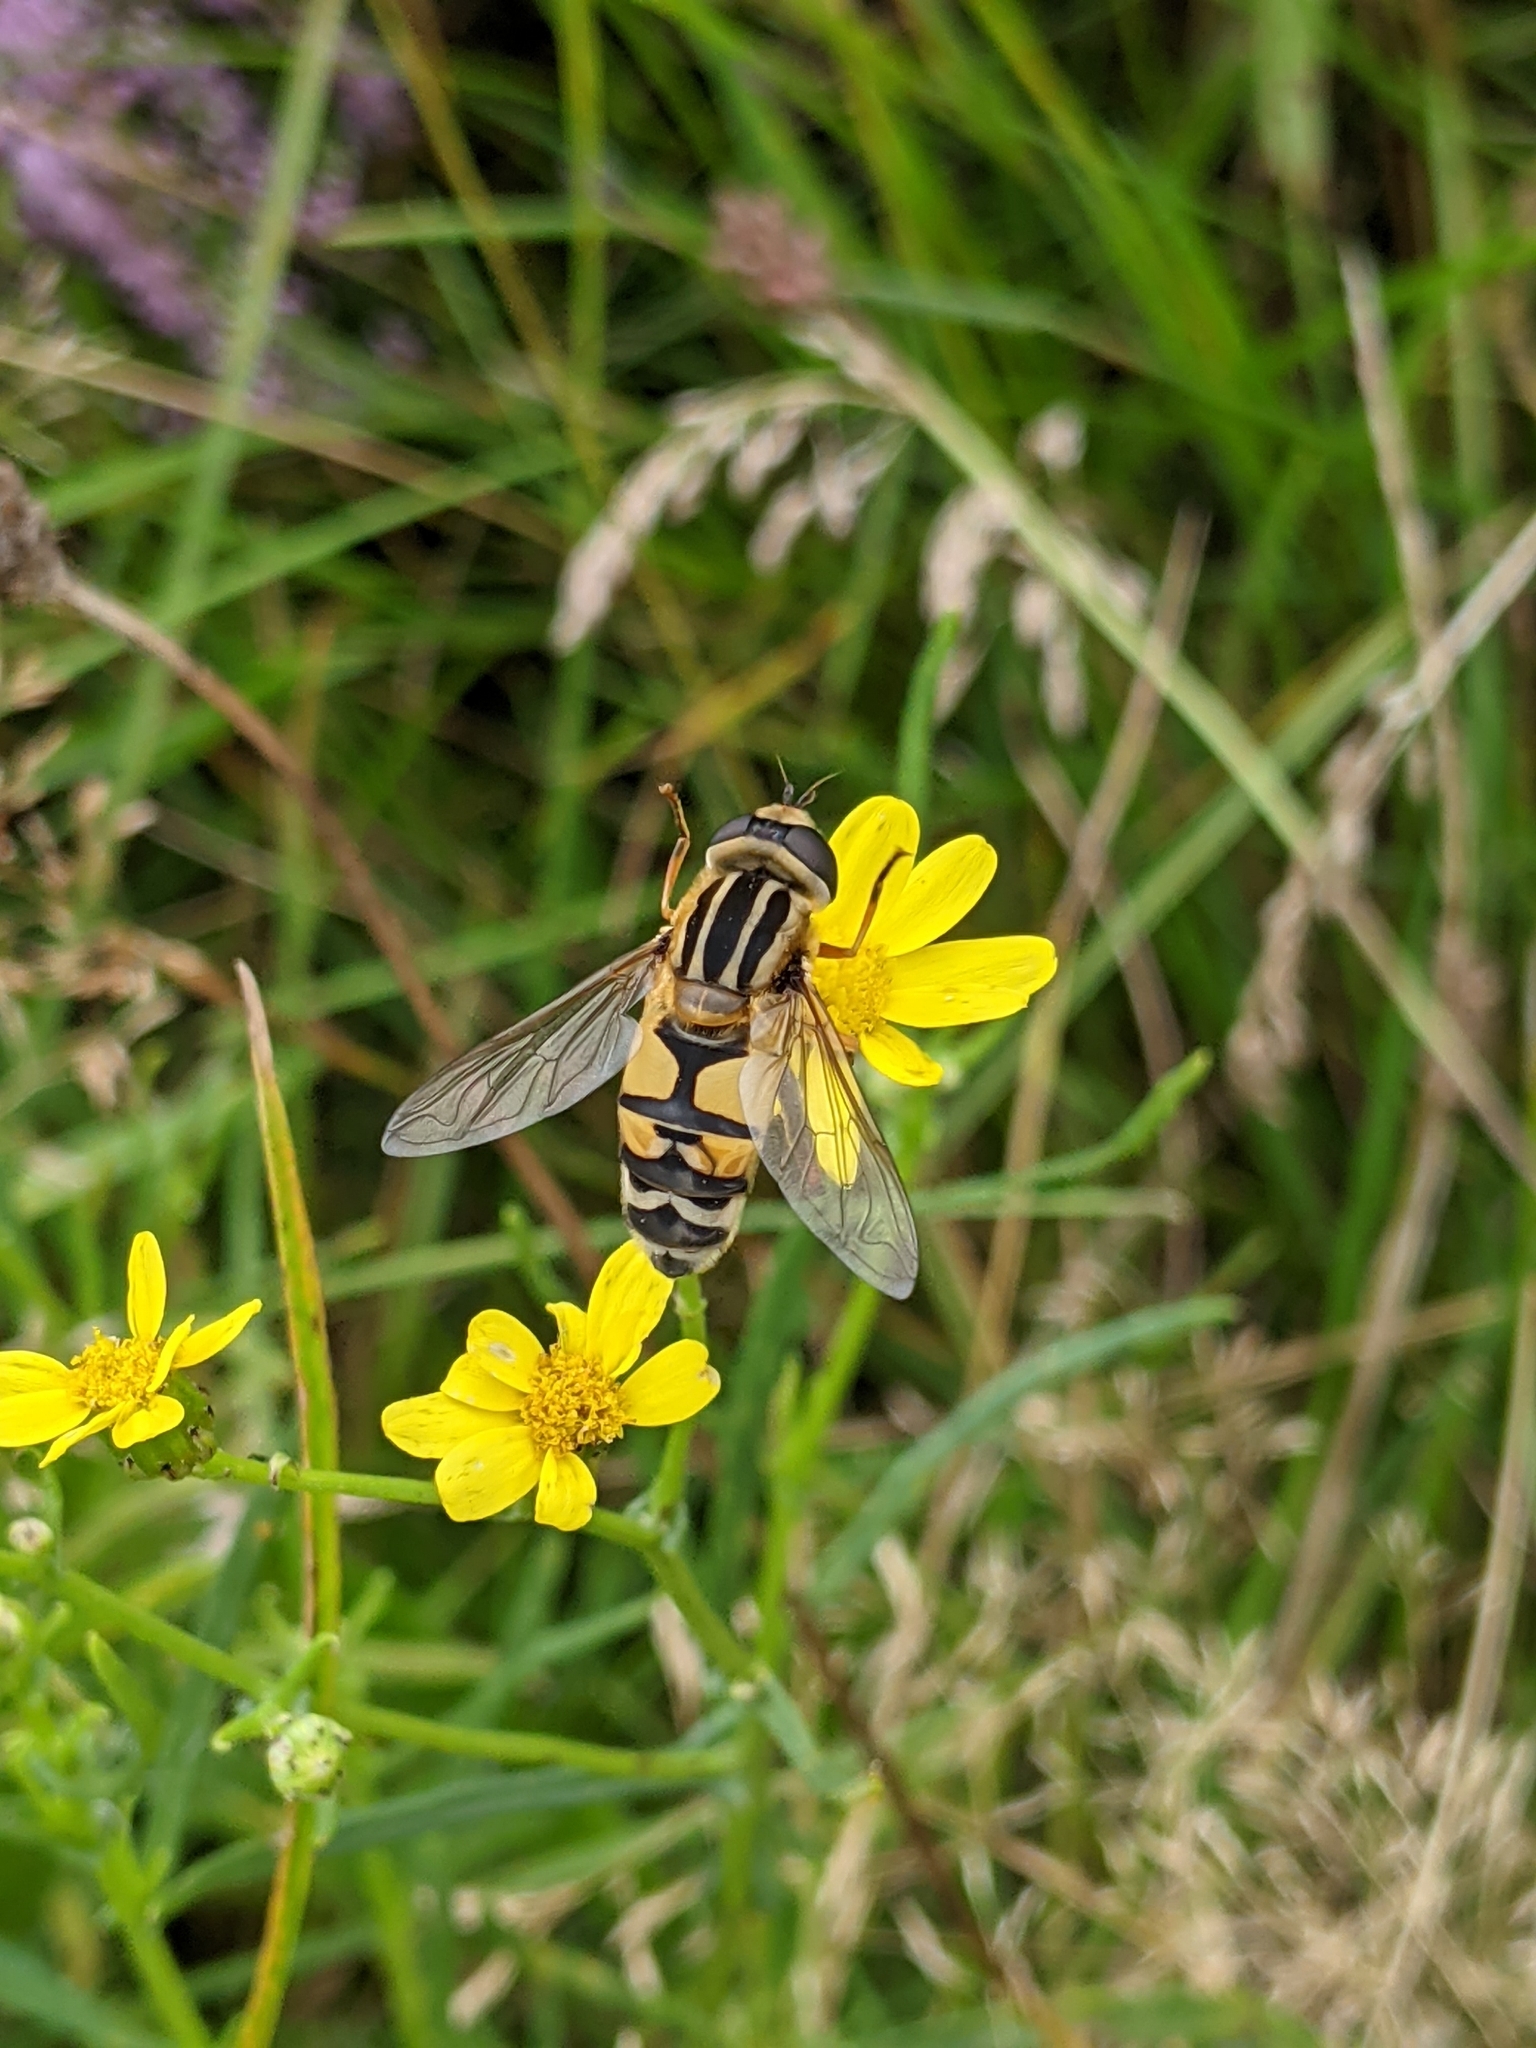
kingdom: Animalia
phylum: Arthropoda
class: Insecta
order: Diptera
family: Syrphidae
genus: Helophilus
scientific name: Helophilus trivittatus
